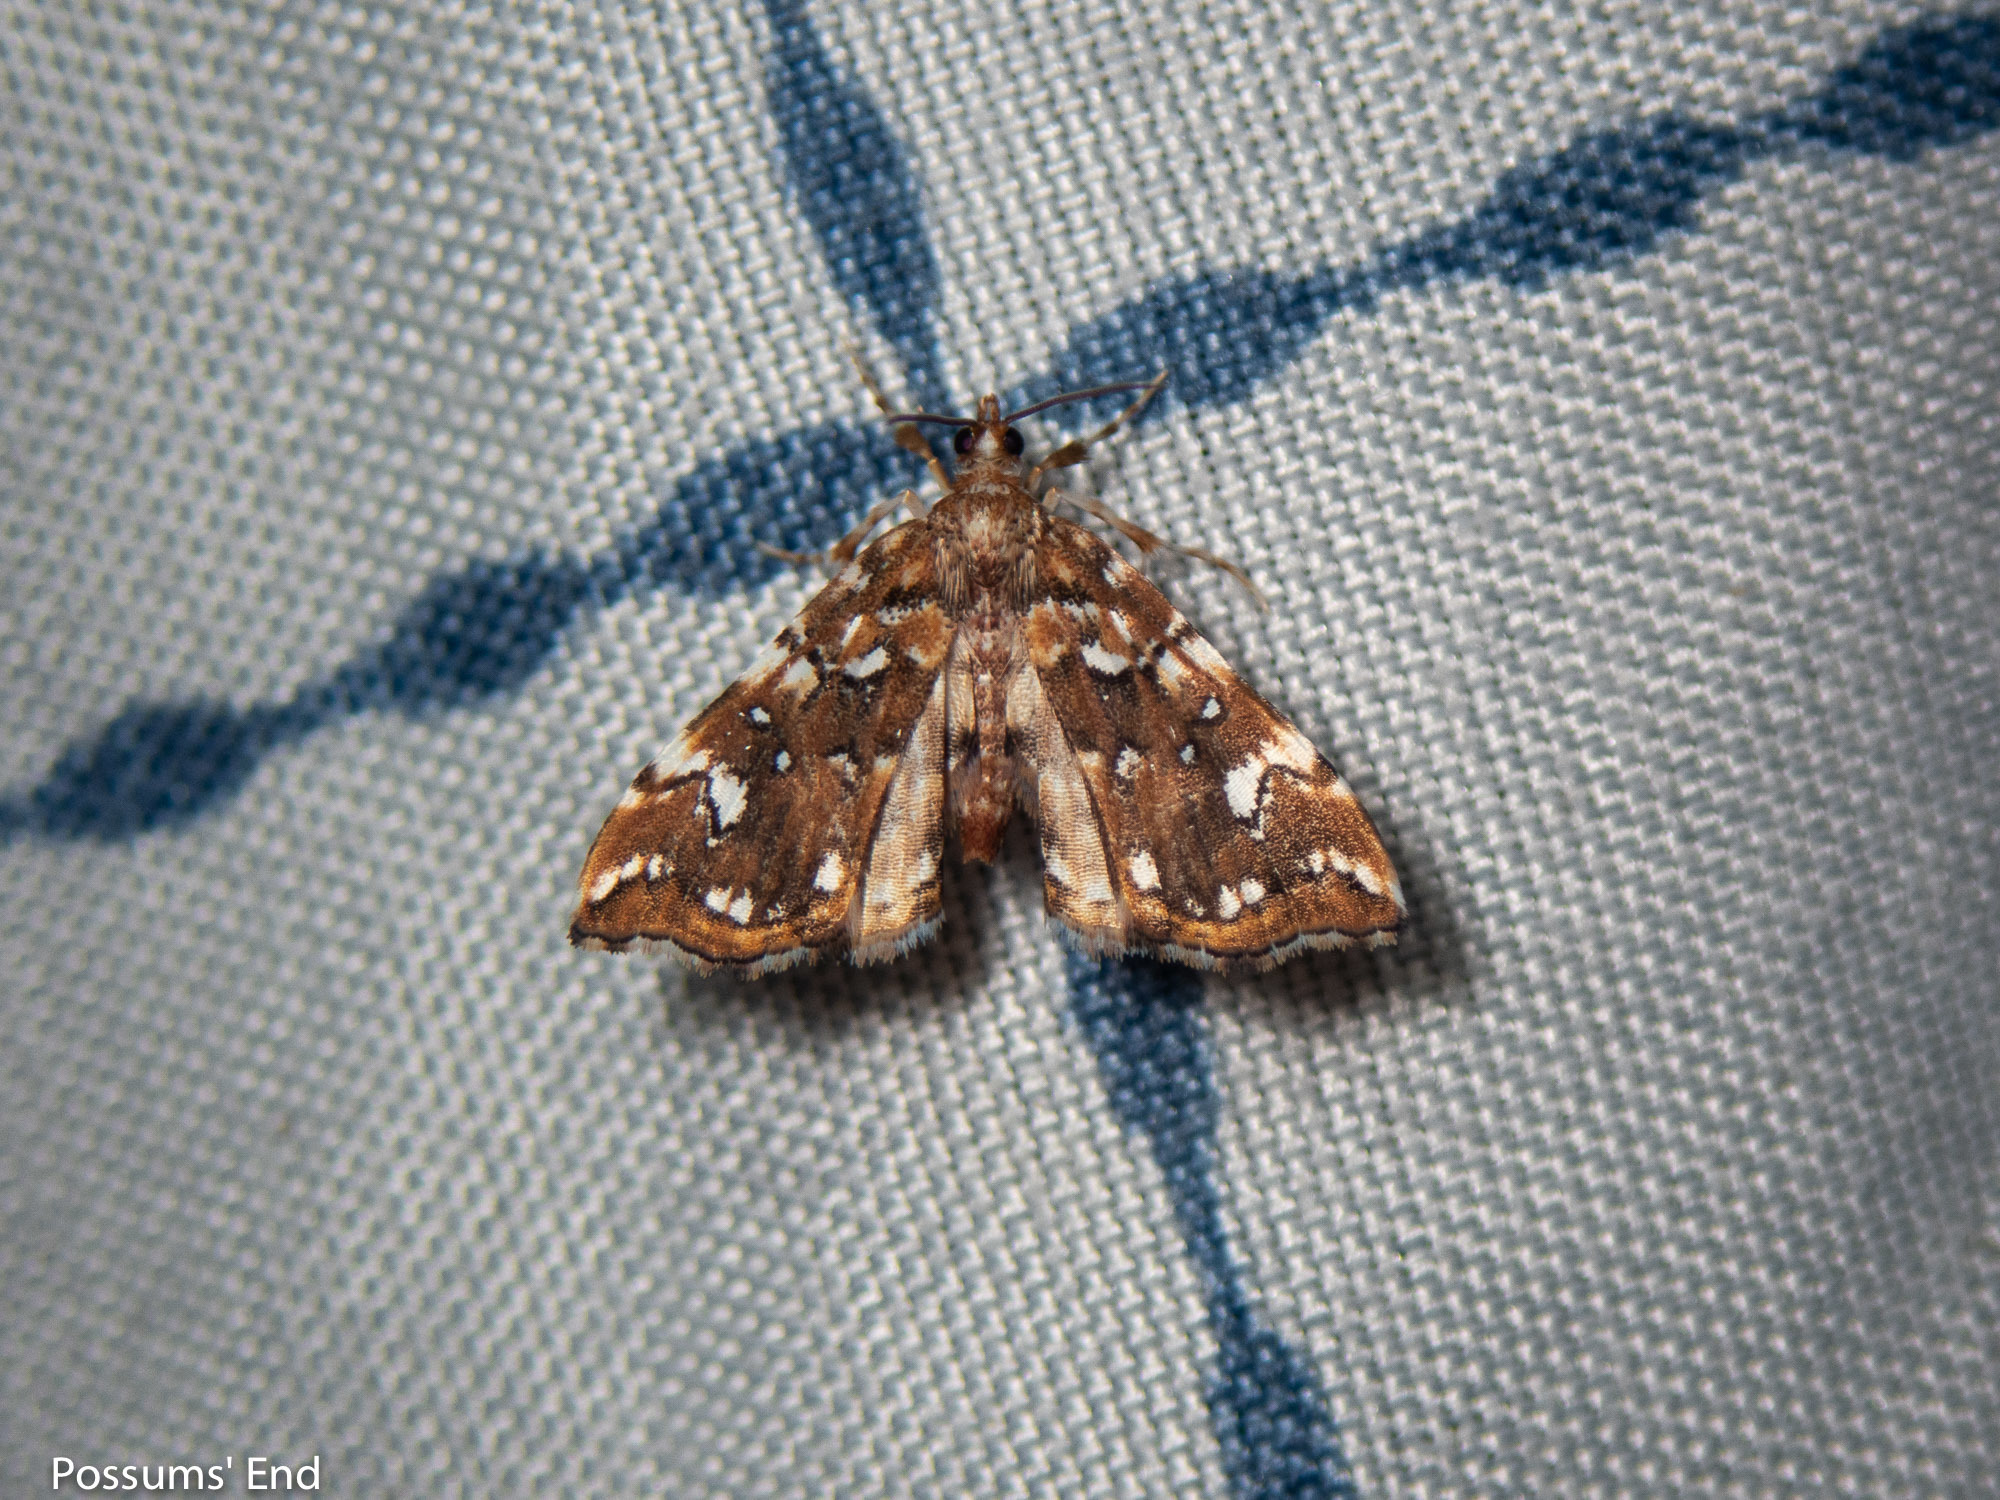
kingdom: Animalia
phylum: Arthropoda
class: Insecta
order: Lepidoptera
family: Pyralidae
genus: Musotima
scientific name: Musotima nitidalis
